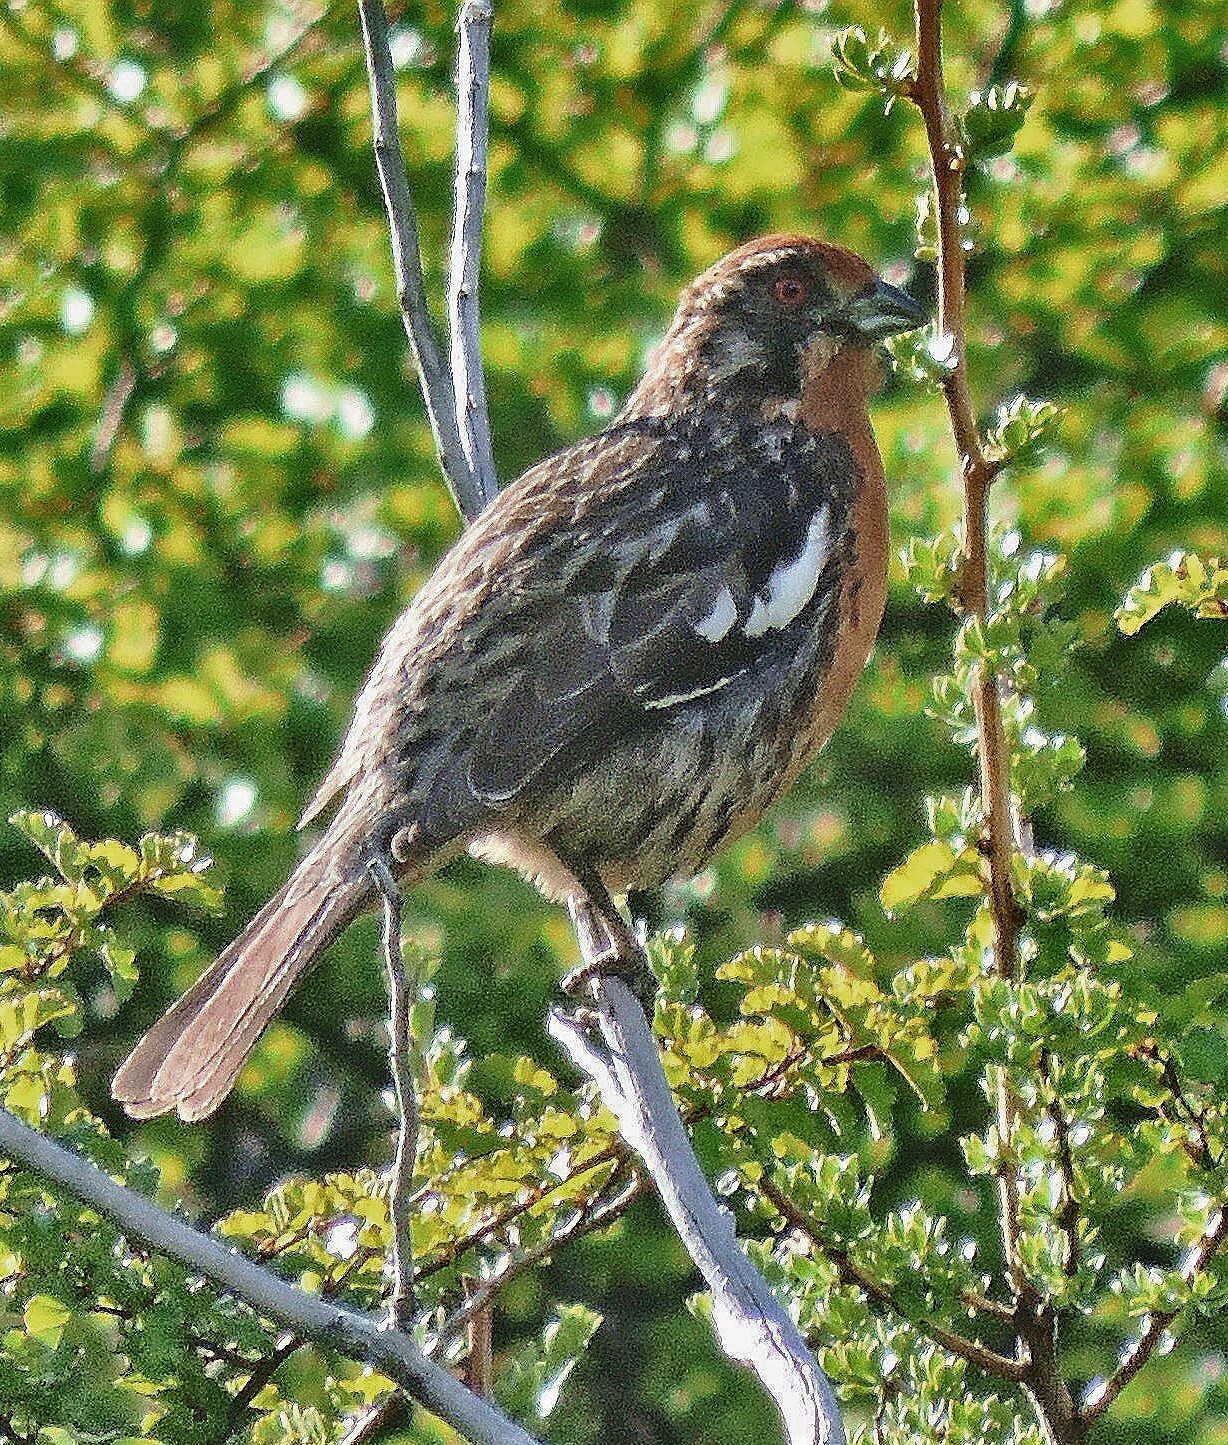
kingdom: Animalia
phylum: Chordata
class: Aves
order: Passeriformes
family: Cotingidae
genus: Phytotoma
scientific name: Phytotoma rara
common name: Rufous-tailed plantcutter
